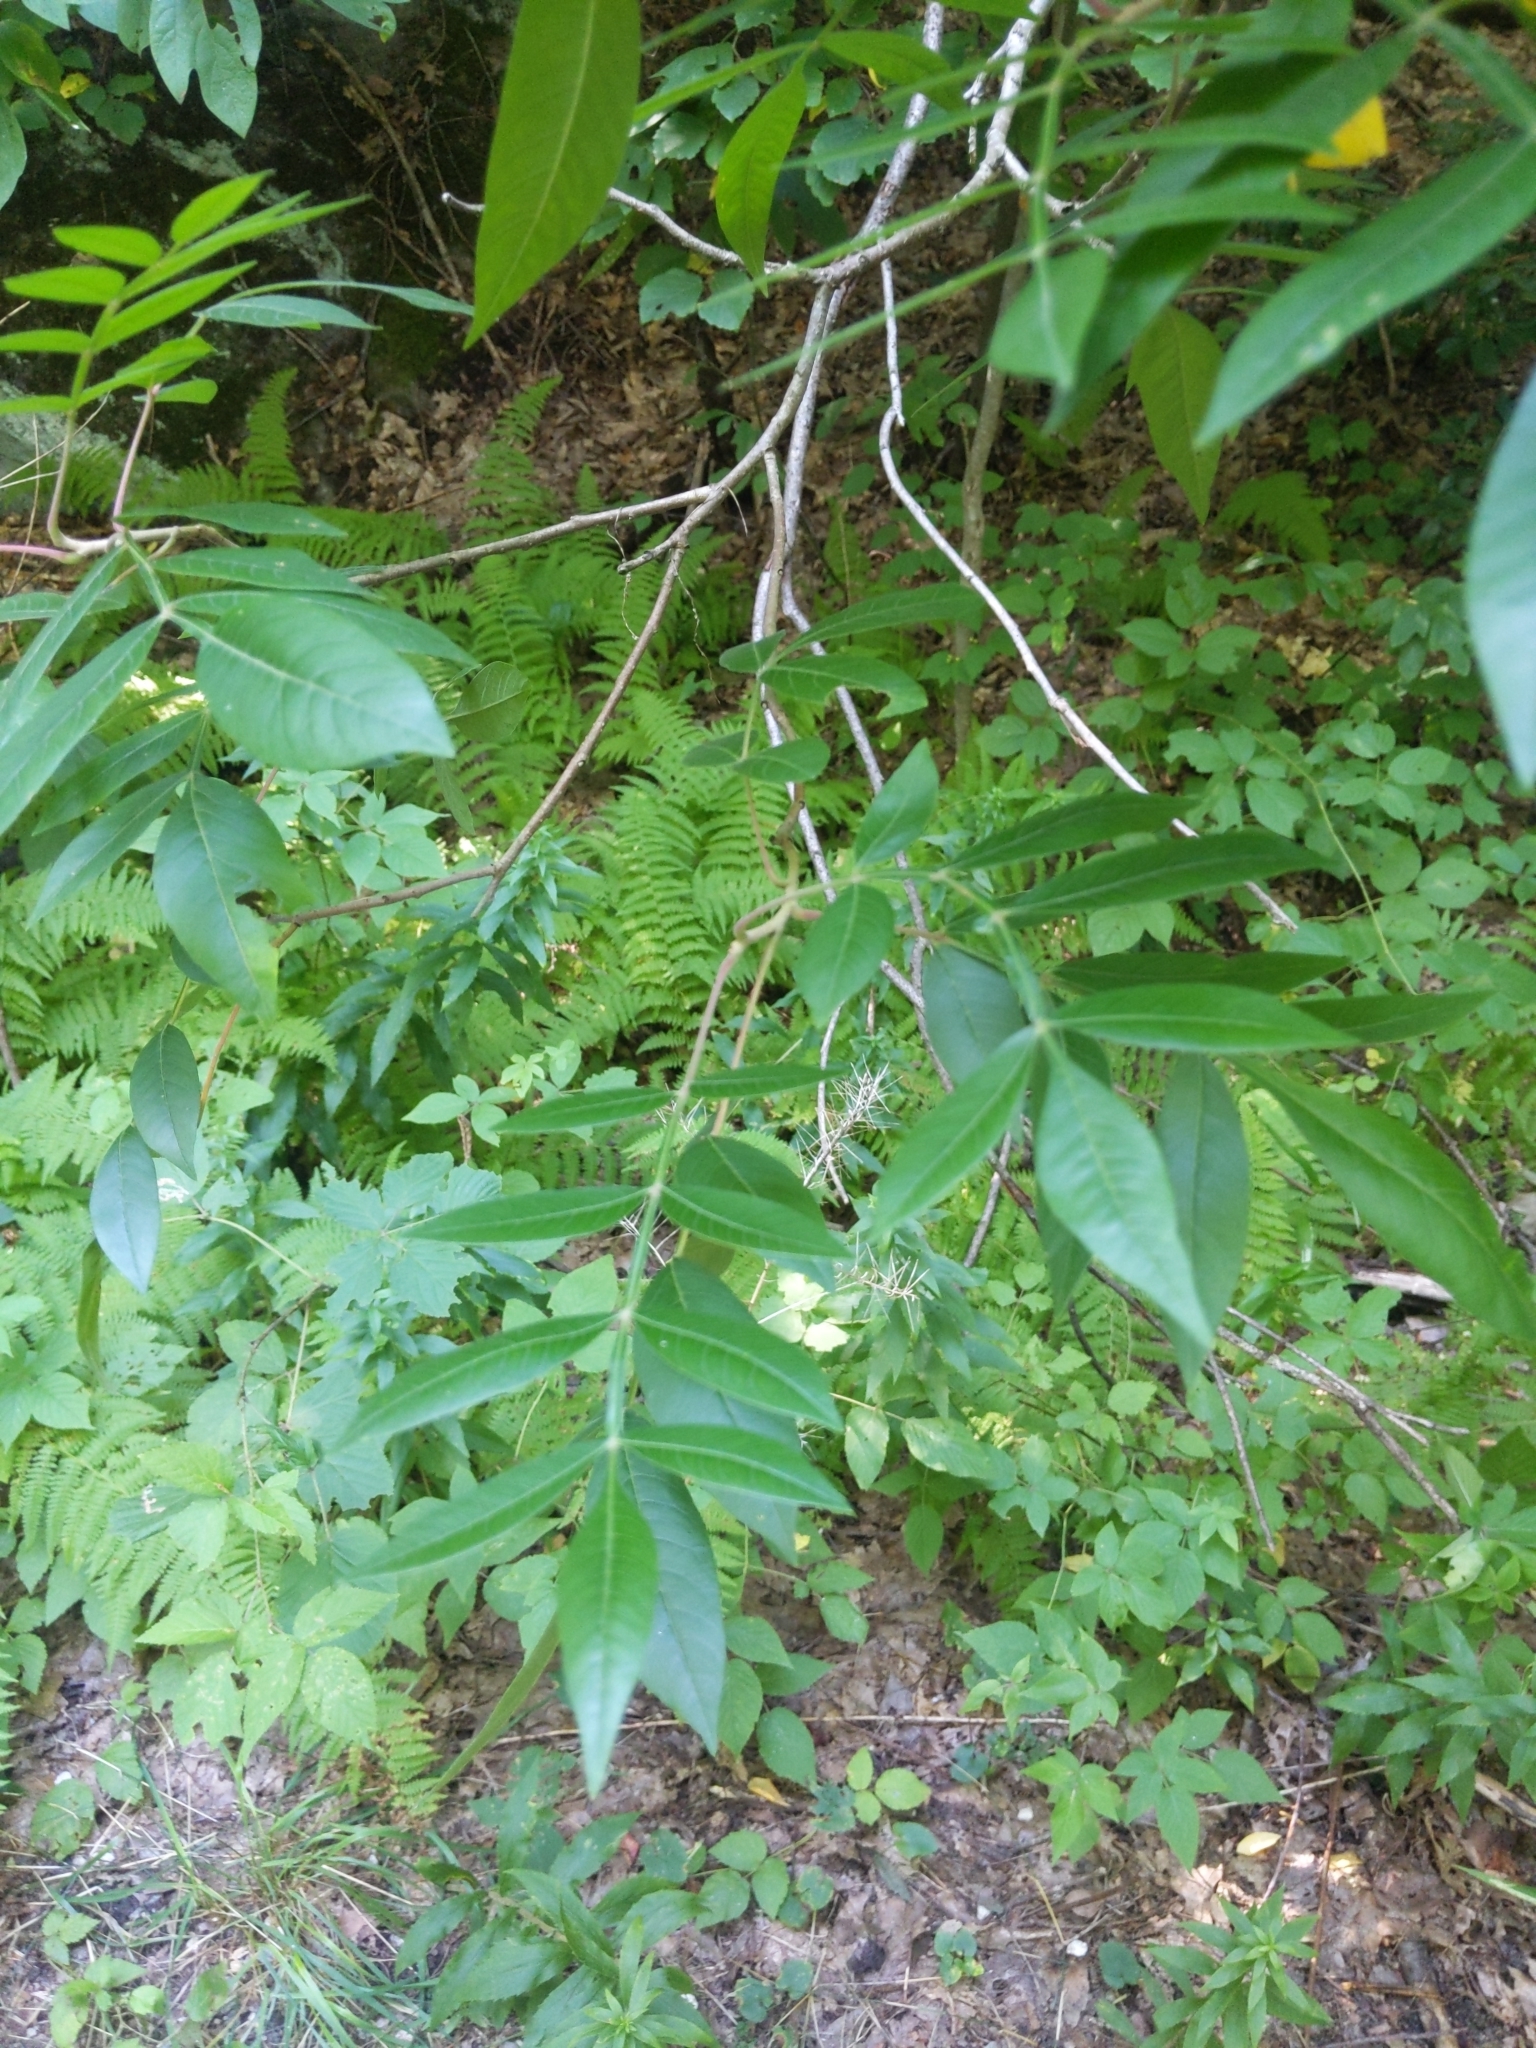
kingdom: Plantae
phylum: Tracheophyta
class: Magnoliopsida
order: Sapindales
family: Anacardiaceae
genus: Rhus
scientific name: Rhus copallina
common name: Shining sumac
